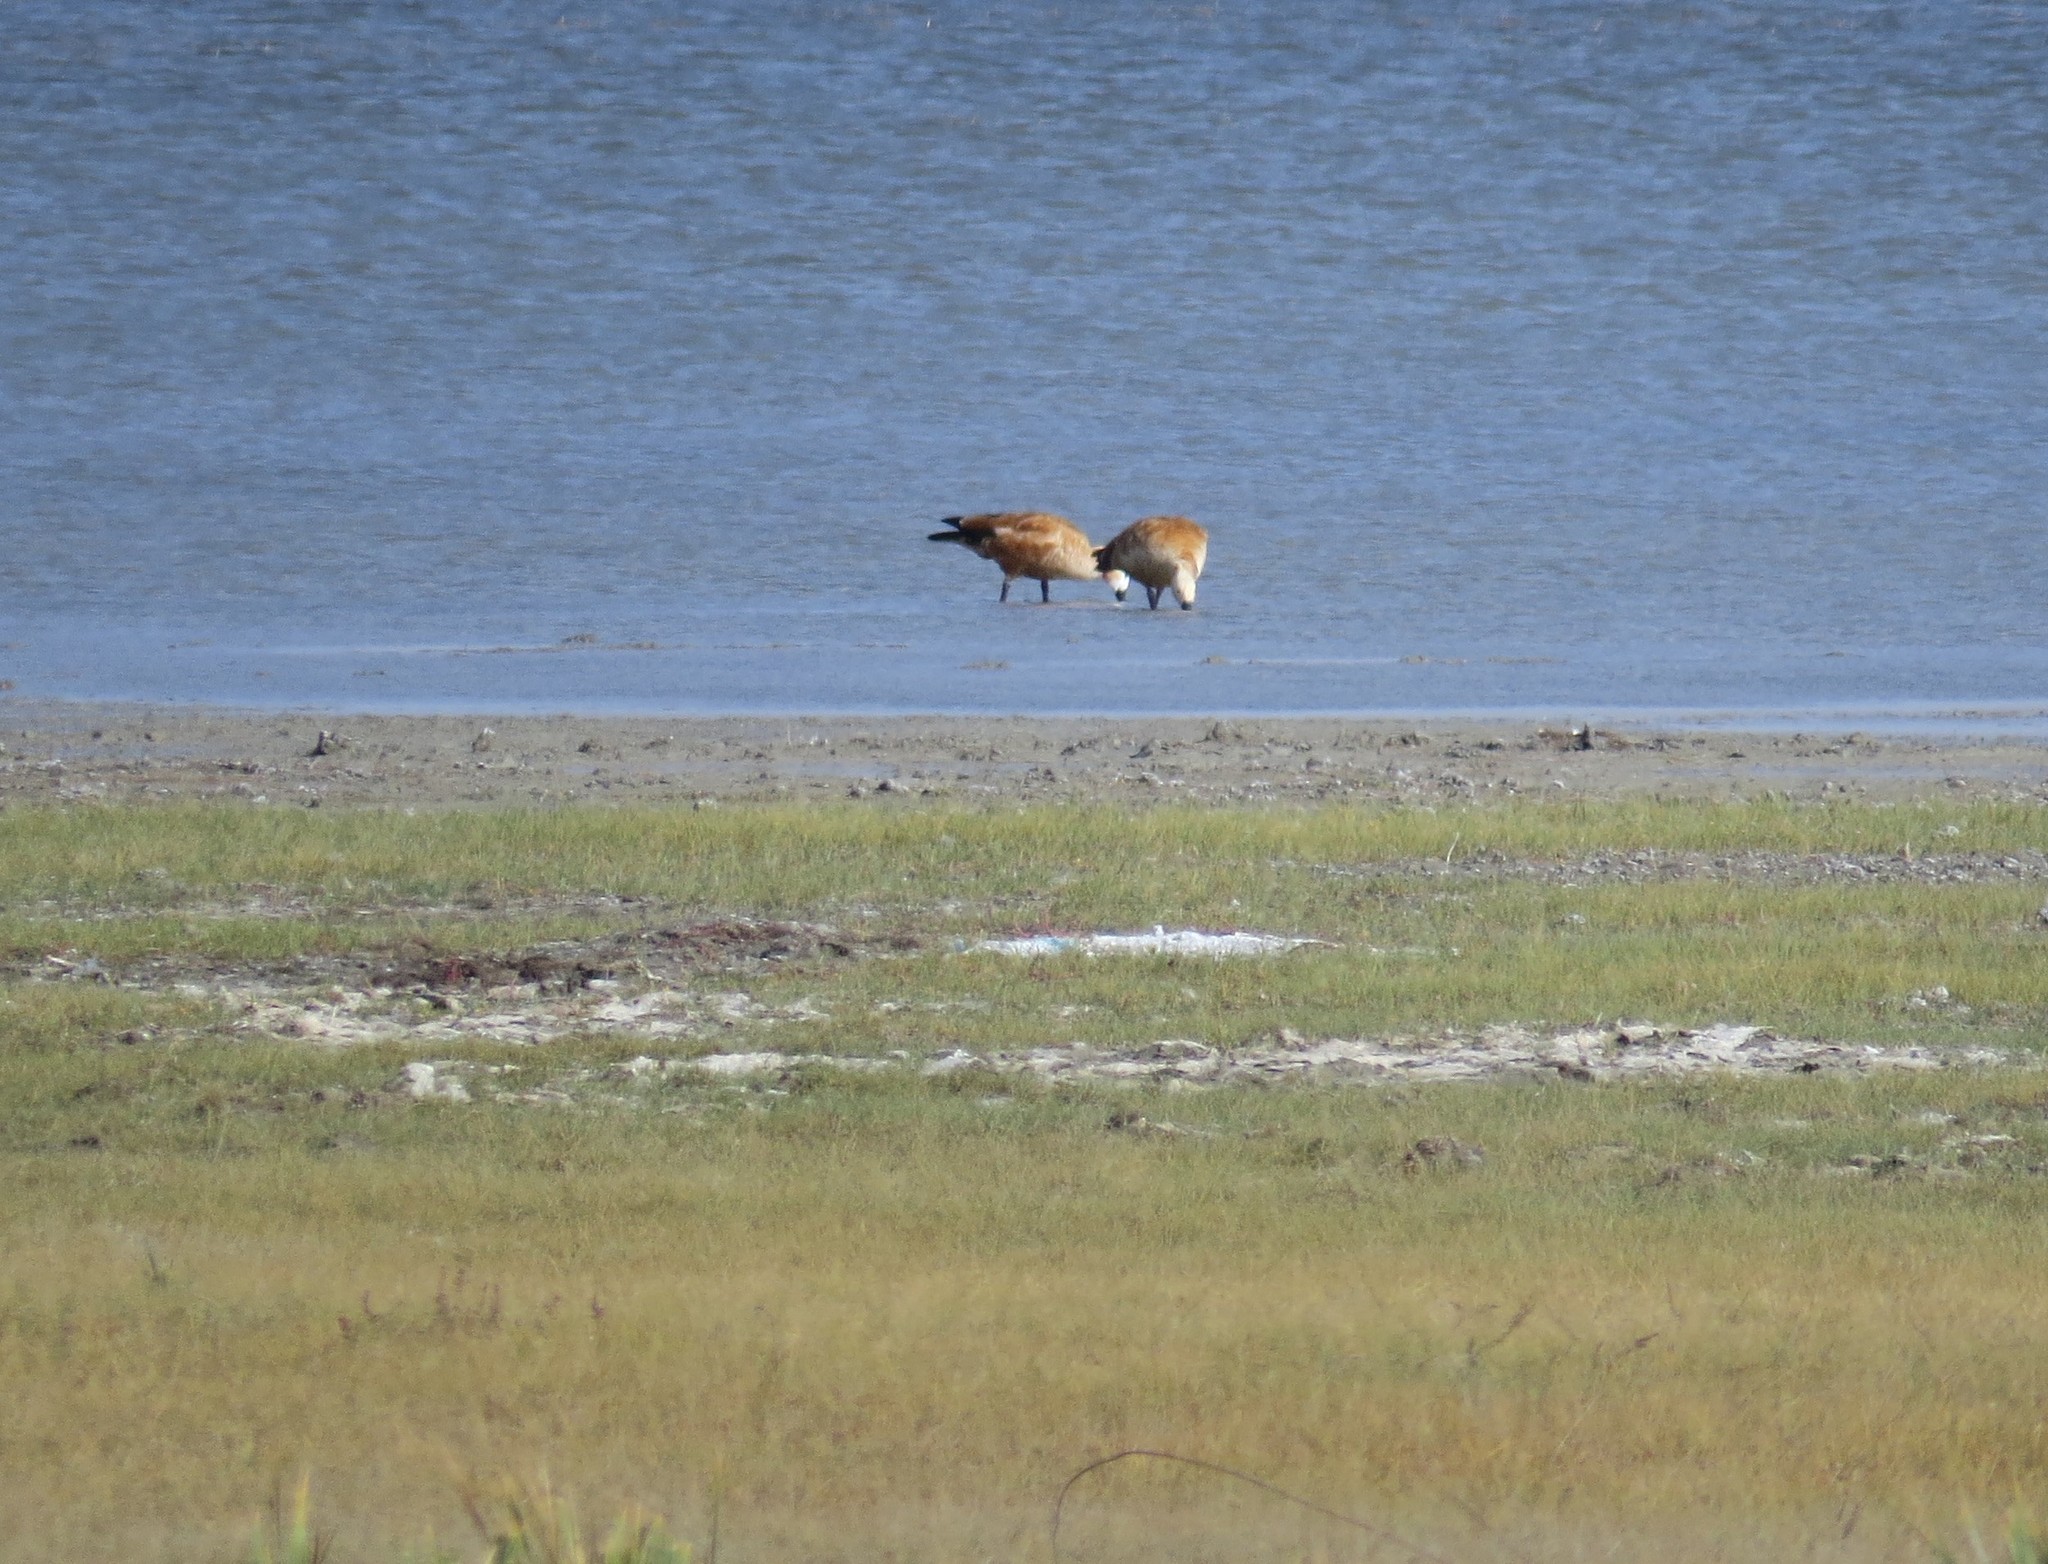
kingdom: Animalia
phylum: Chordata
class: Aves
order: Anseriformes
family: Anatidae
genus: Tadorna
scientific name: Tadorna ferruginea
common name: Ruddy shelduck
